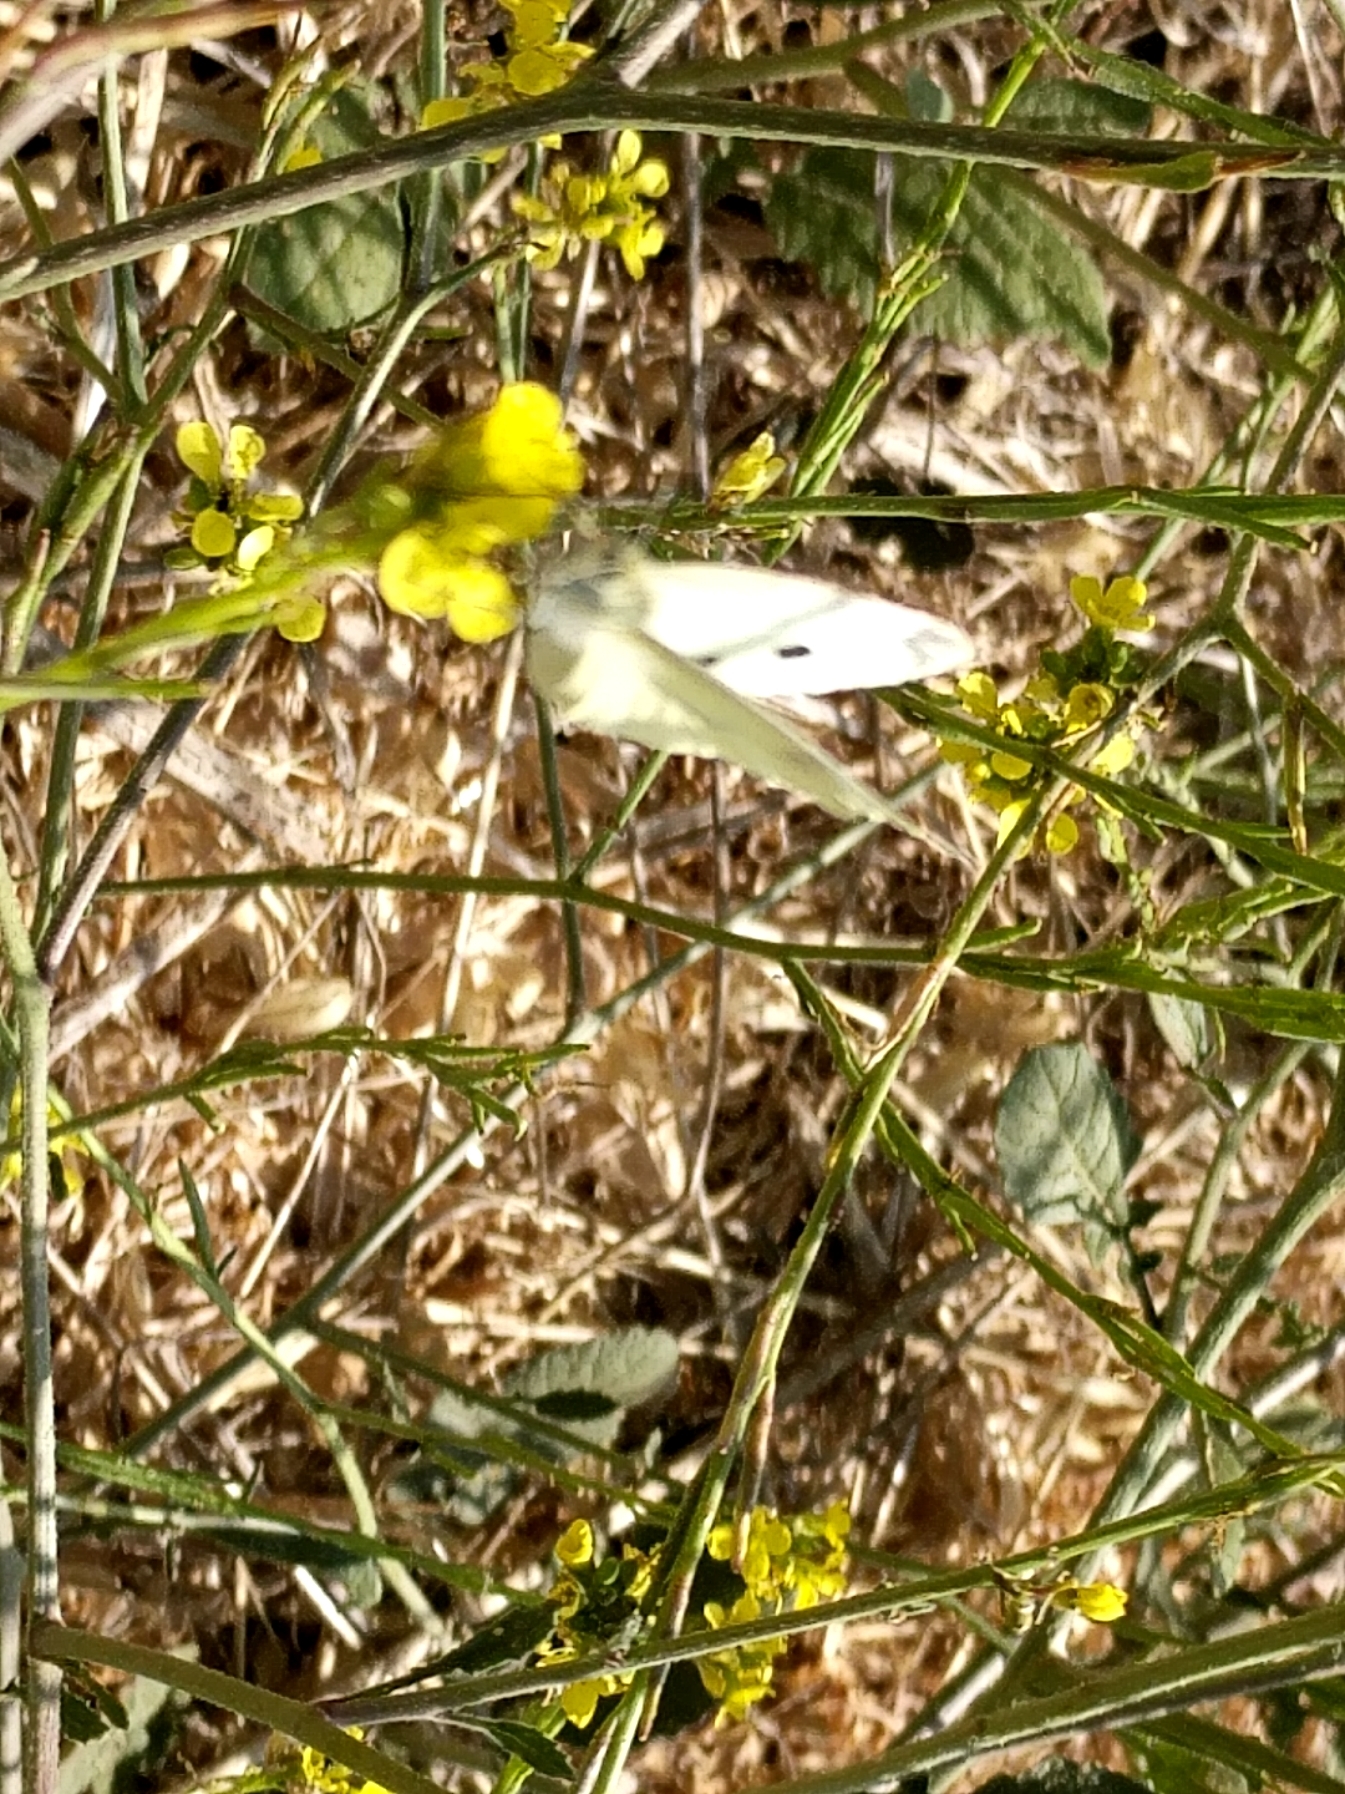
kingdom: Animalia
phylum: Arthropoda
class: Insecta
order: Lepidoptera
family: Pieridae
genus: Pieris
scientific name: Pieris rapae
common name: Small white
